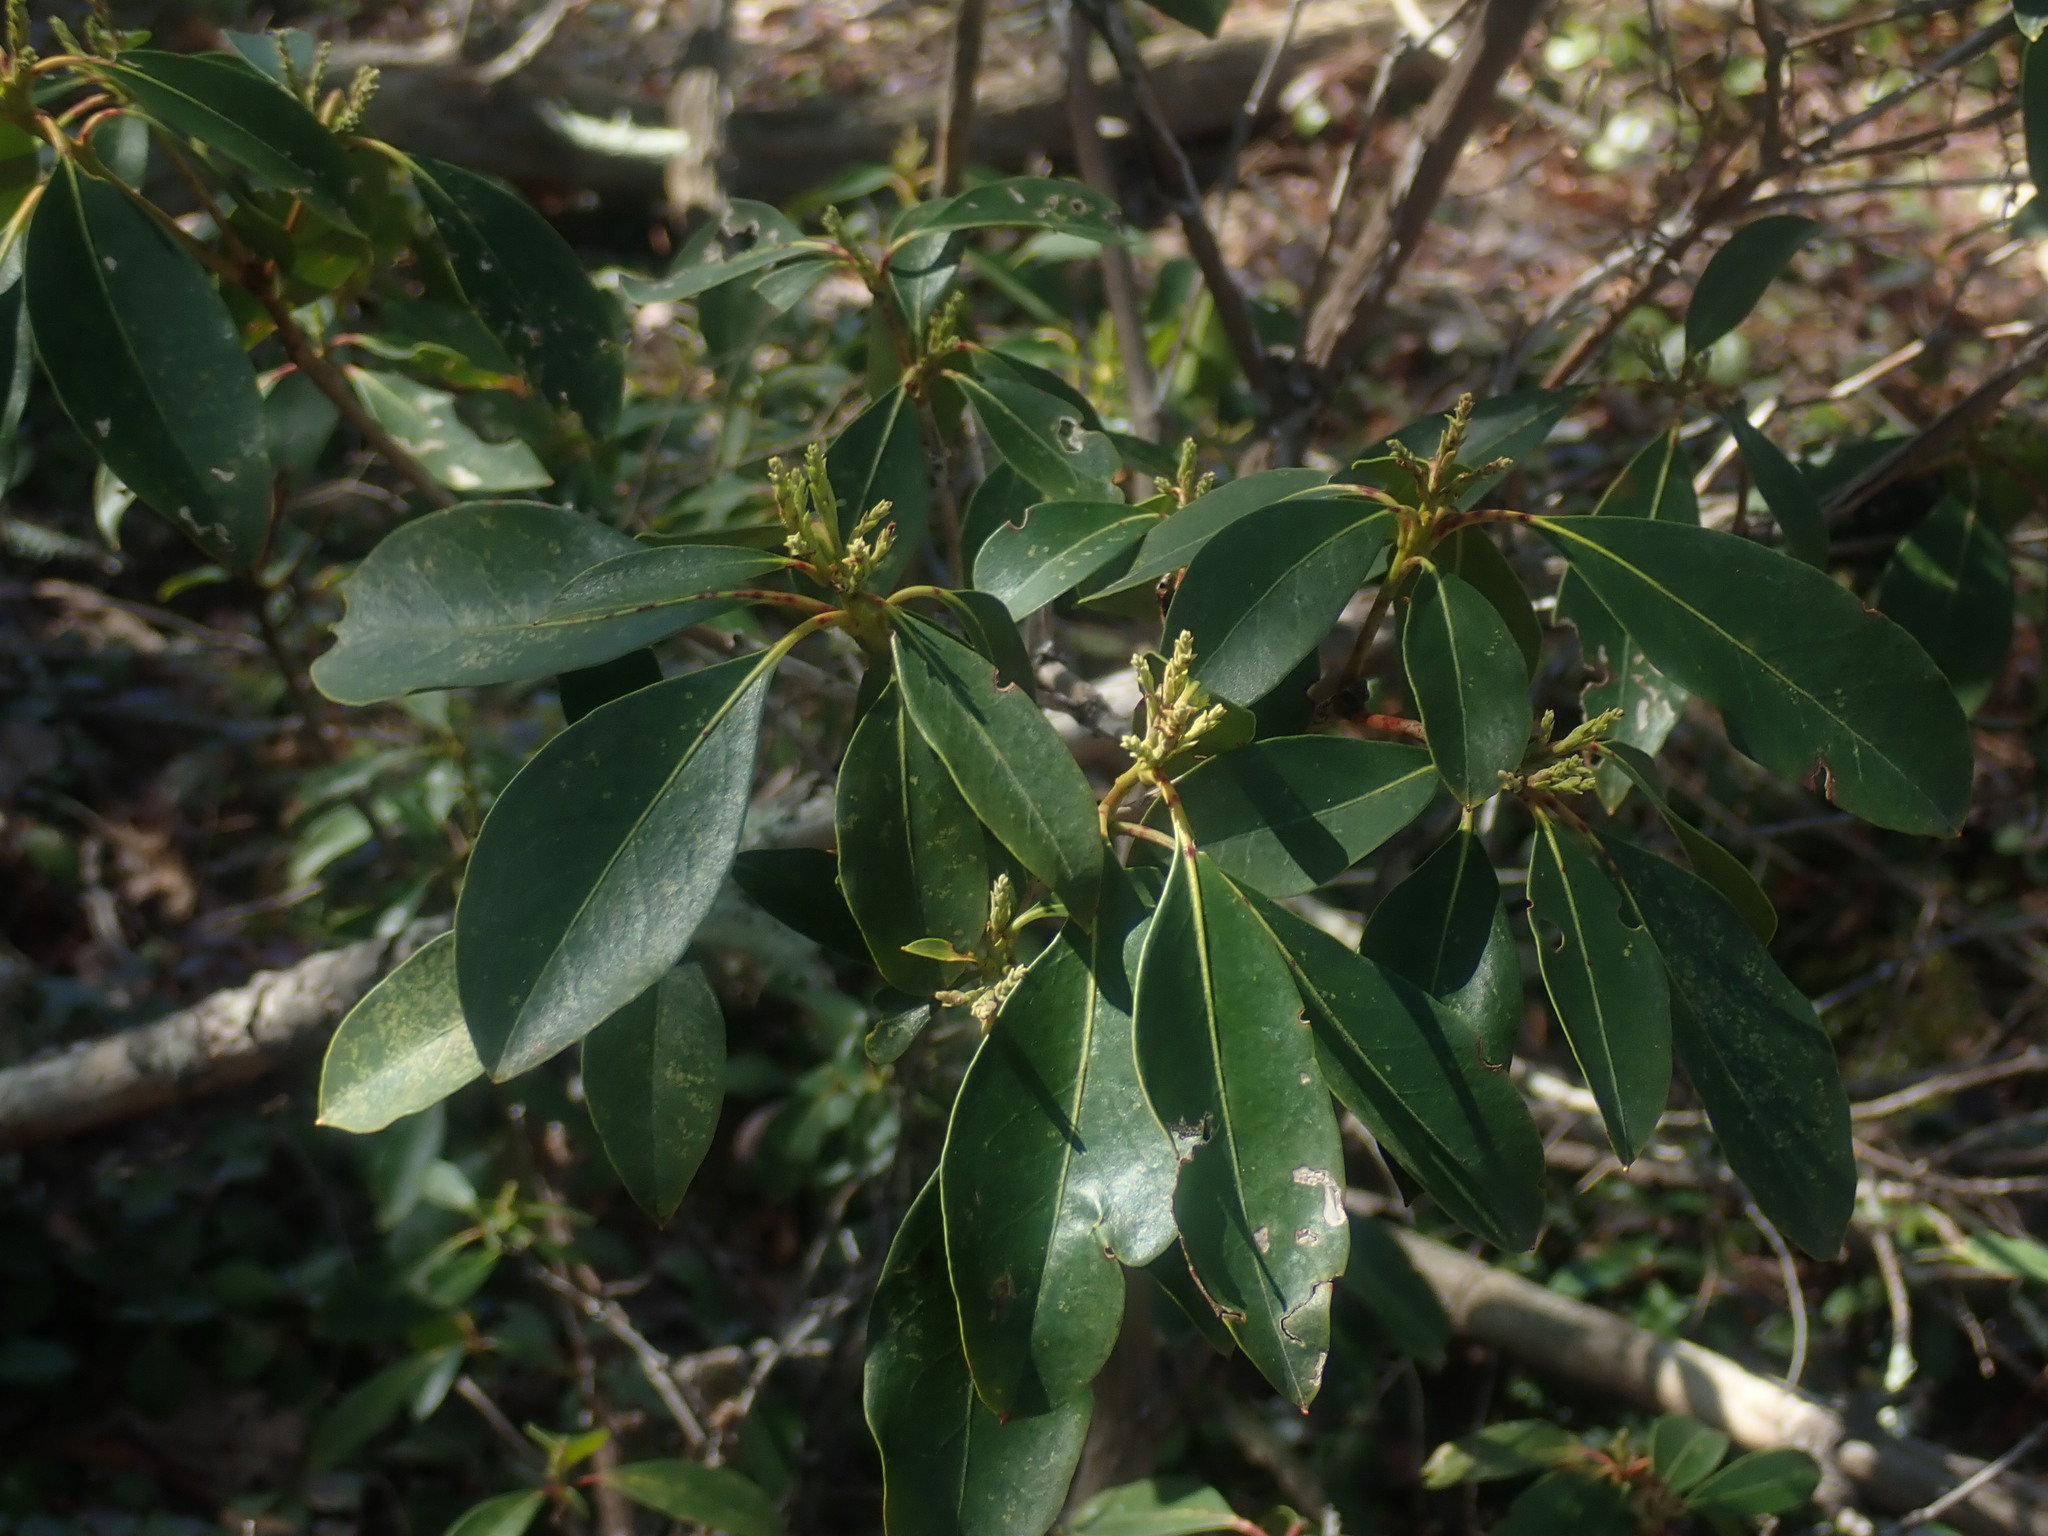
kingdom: Plantae
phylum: Tracheophyta
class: Magnoliopsida
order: Ericales
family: Ericaceae
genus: Kalmia
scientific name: Kalmia latifolia
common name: Mountain-laurel
